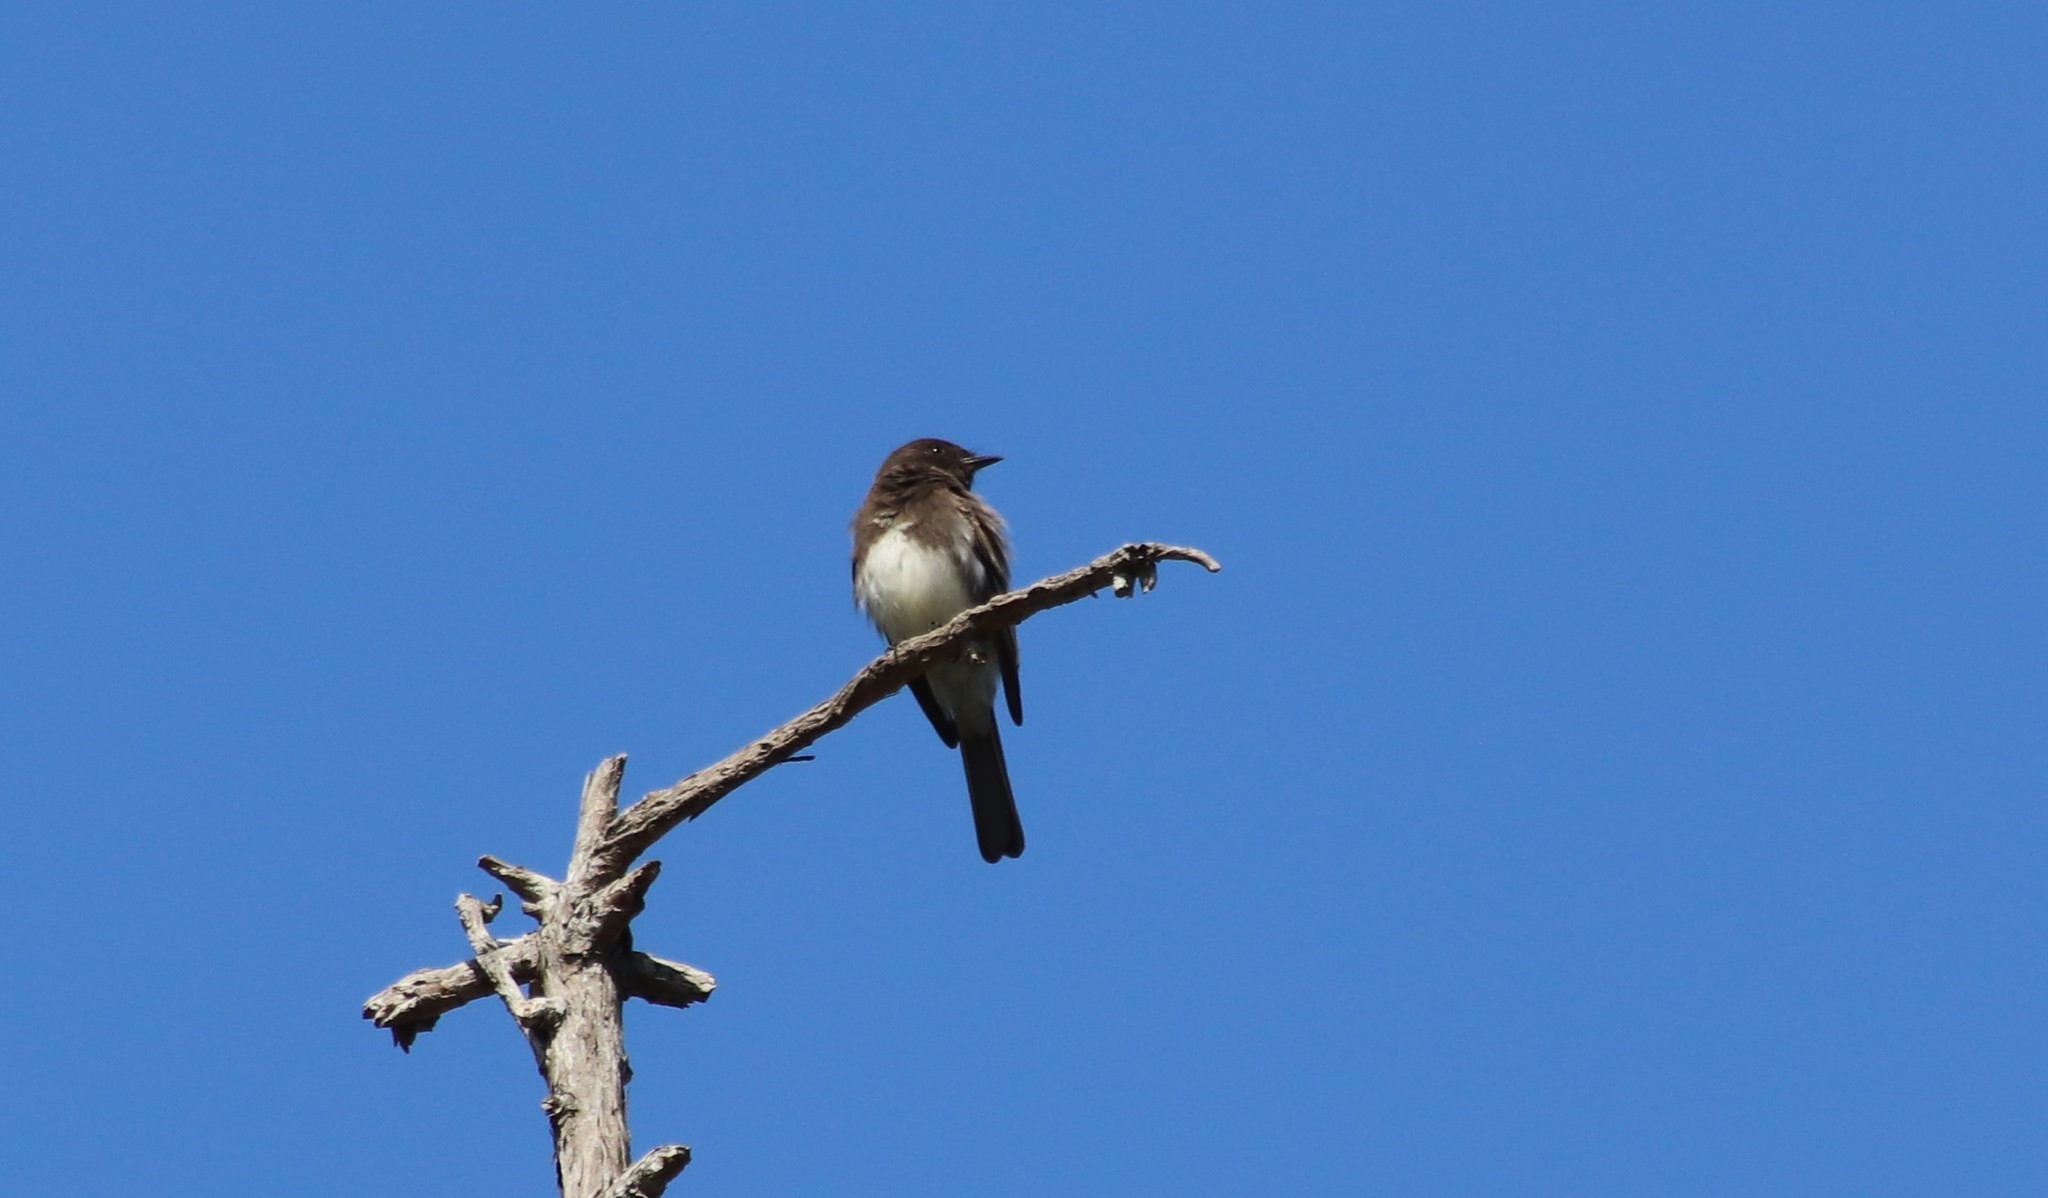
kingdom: Animalia
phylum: Chordata
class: Aves
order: Passeriformes
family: Tyrannidae
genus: Sayornis
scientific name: Sayornis nigricans
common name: Black phoebe
